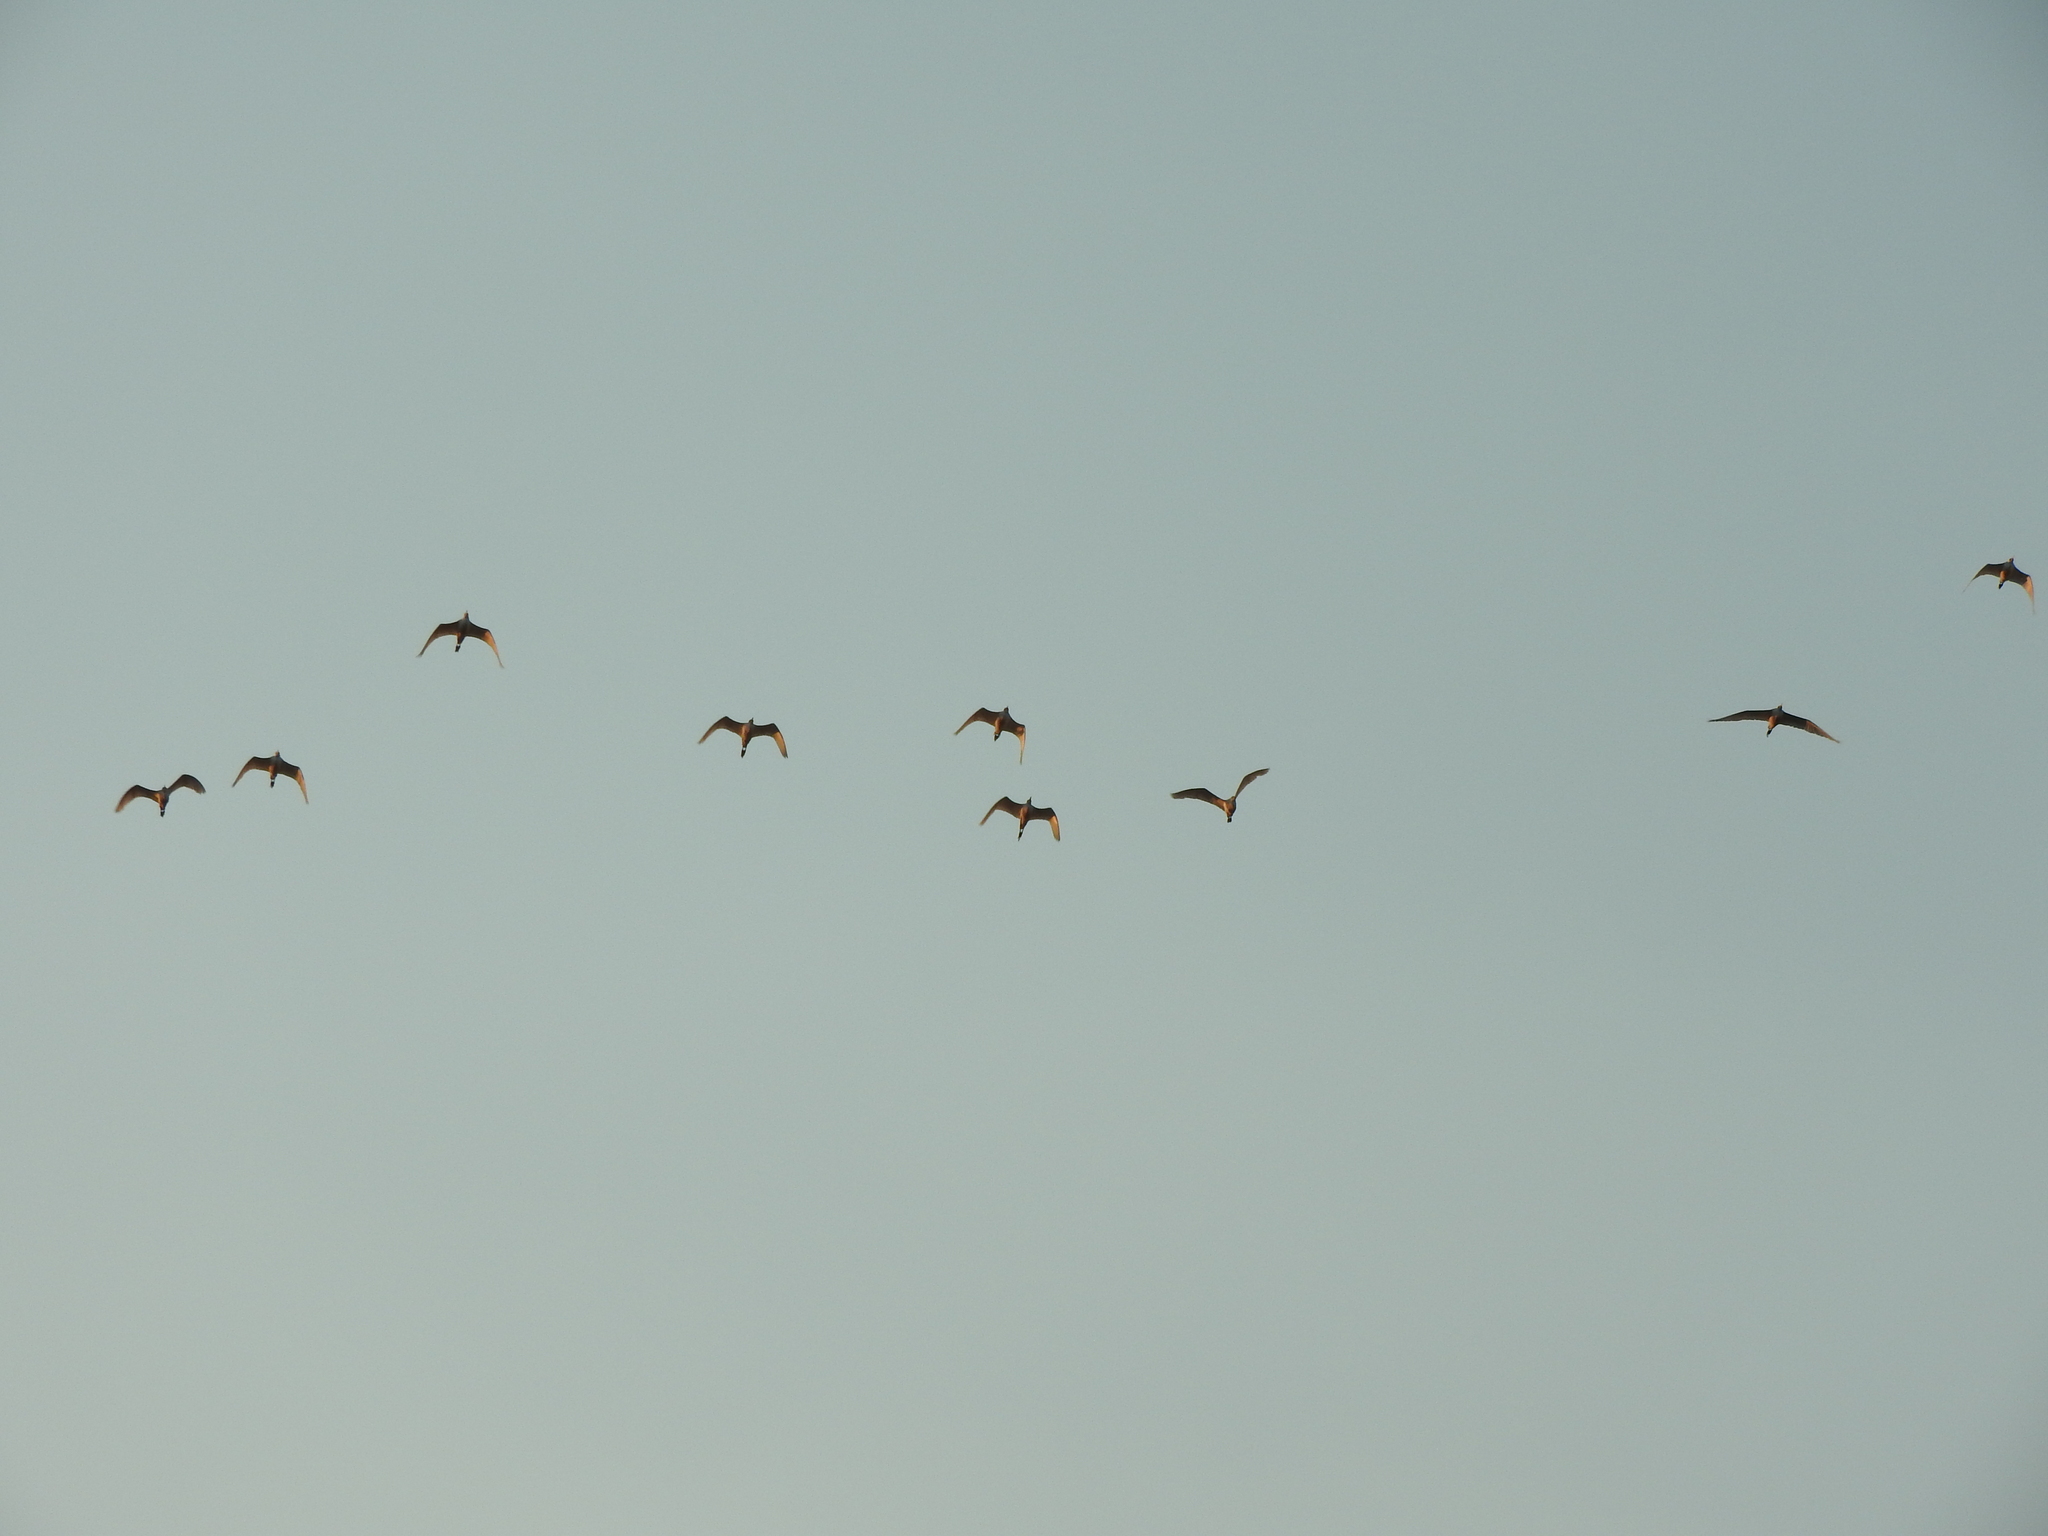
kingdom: Animalia
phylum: Chordata
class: Aves
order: Pelecaniformes
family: Ardeidae
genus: Bubulcus
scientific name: Bubulcus ibis
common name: Cattle egret
